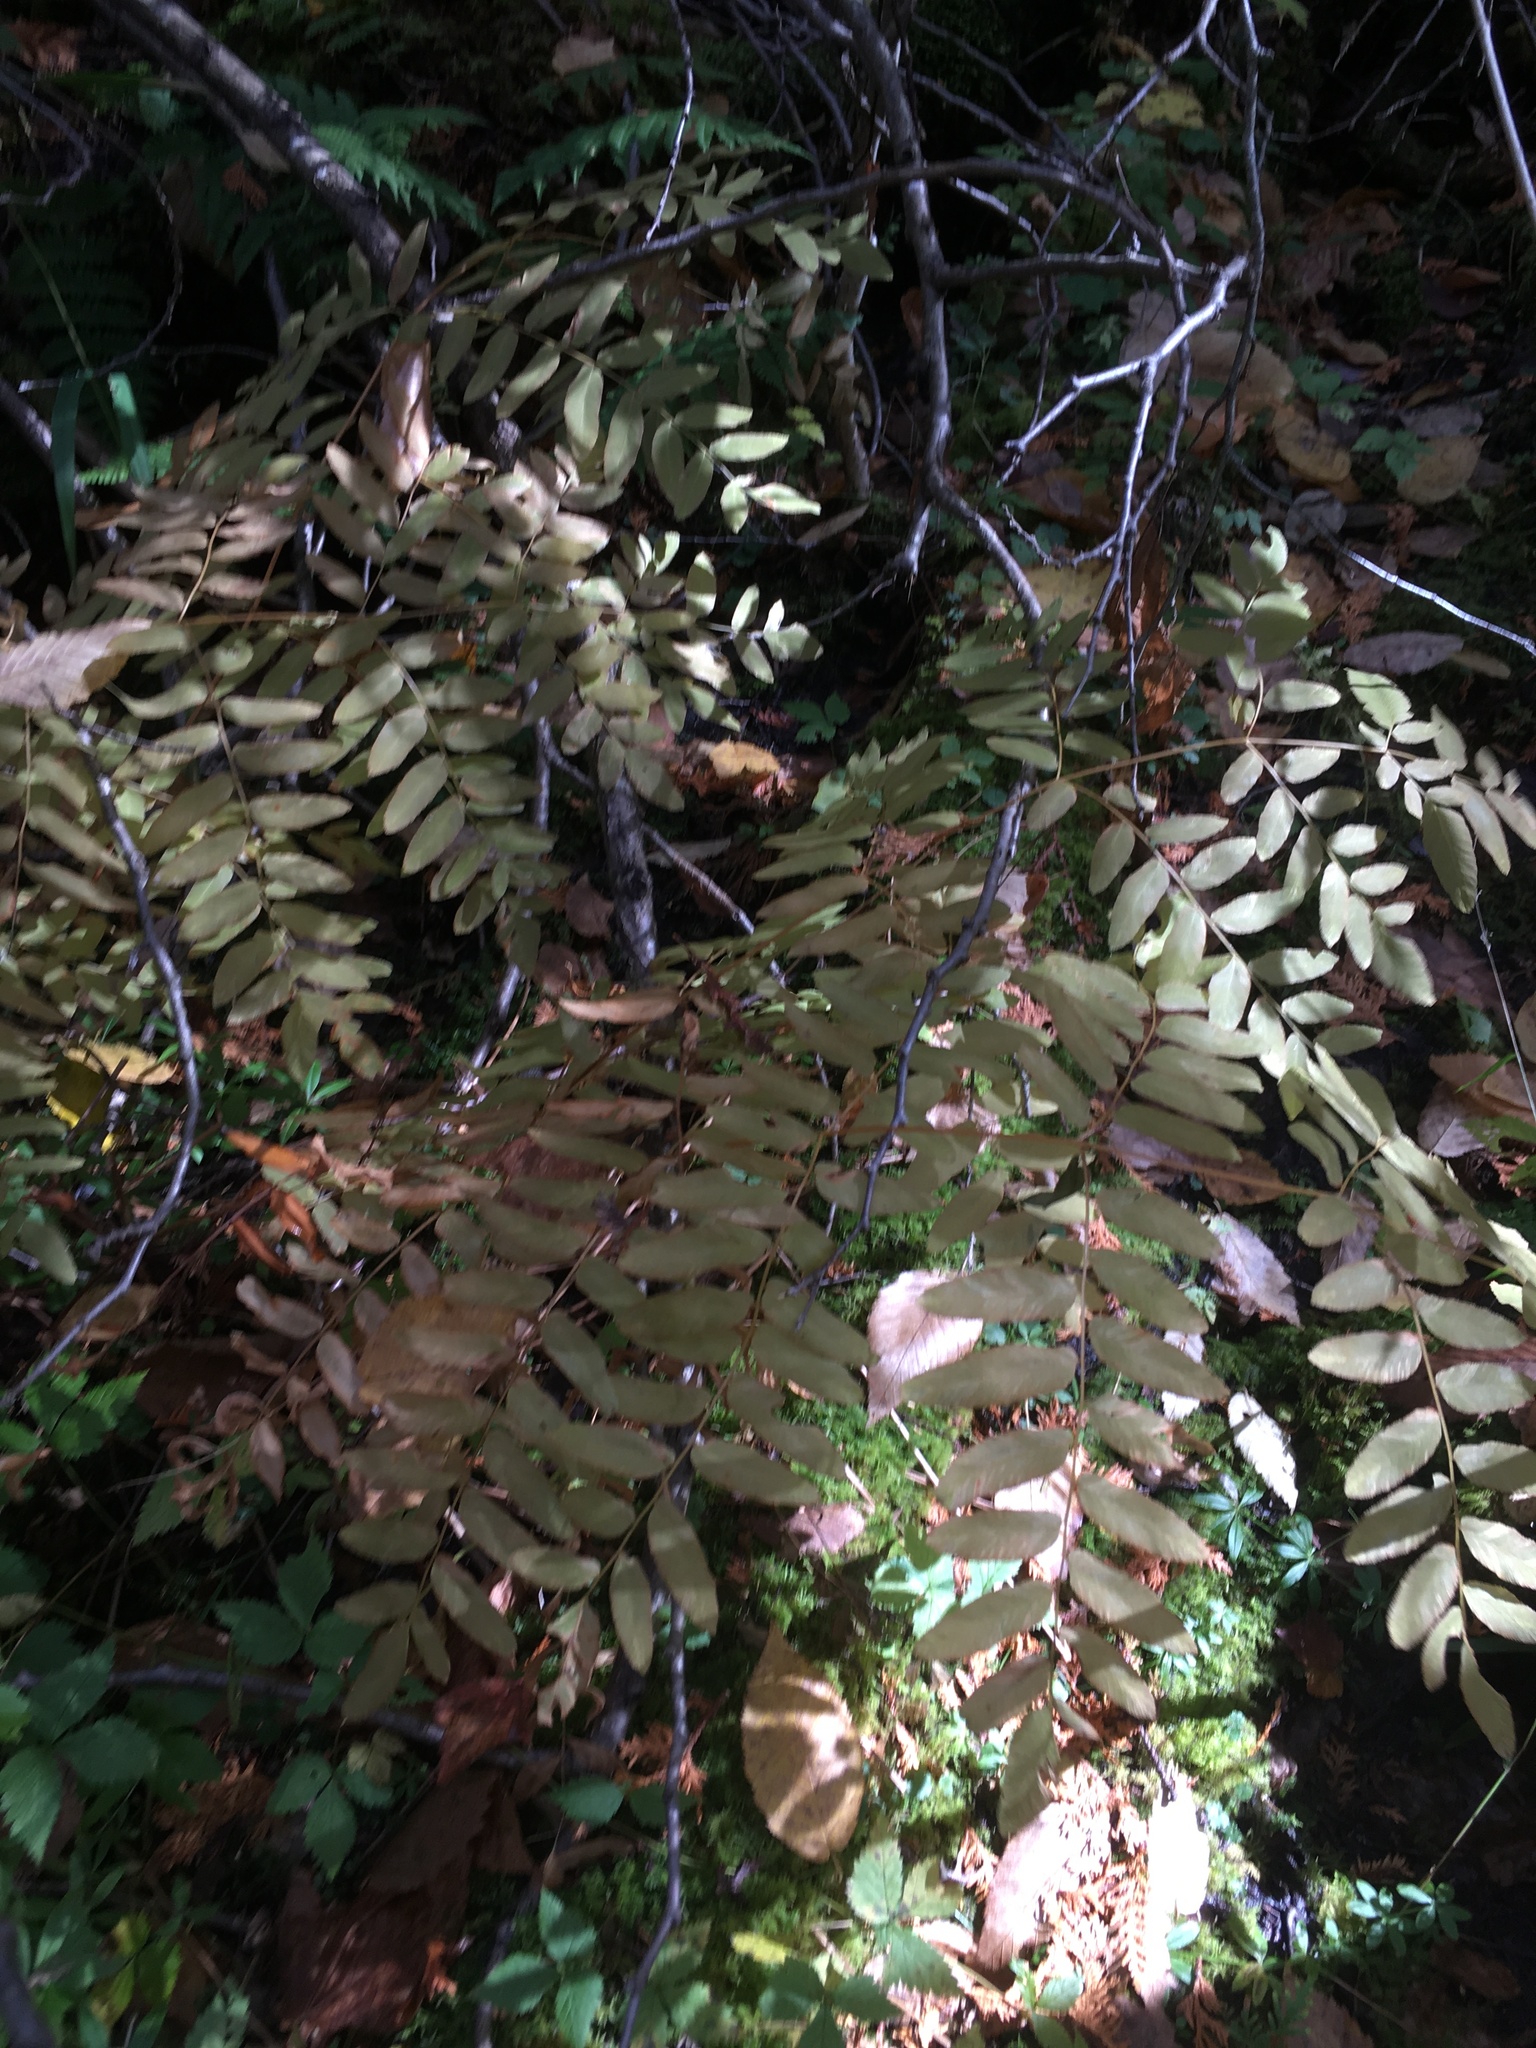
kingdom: Plantae
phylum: Tracheophyta
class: Polypodiopsida
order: Osmundales
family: Osmundaceae
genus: Osmunda
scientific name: Osmunda spectabilis
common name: American royal fern
